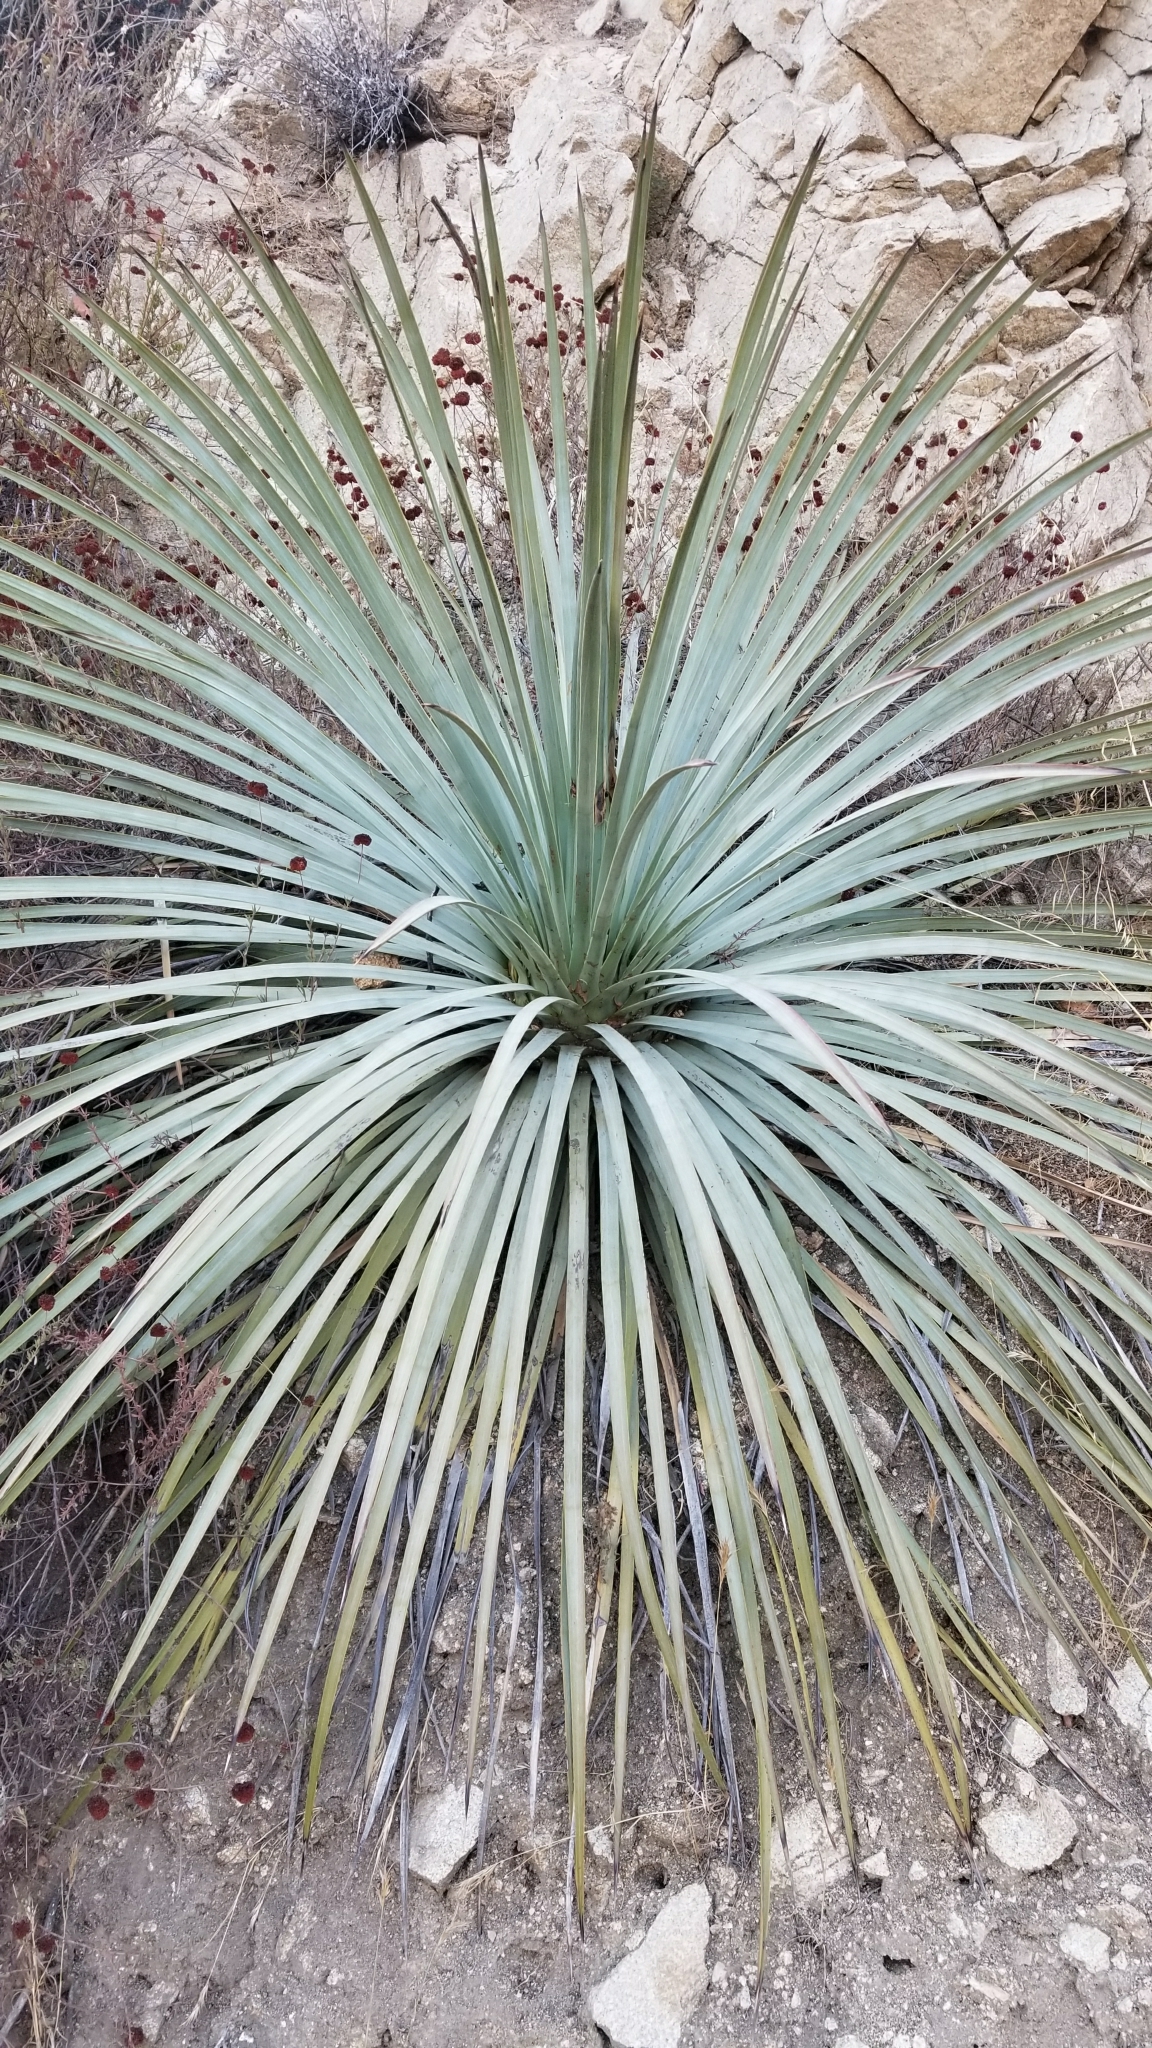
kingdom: Plantae
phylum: Tracheophyta
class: Liliopsida
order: Asparagales
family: Asparagaceae
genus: Hesperoyucca
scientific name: Hesperoyucca whipplei
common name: Our lord's-candle
